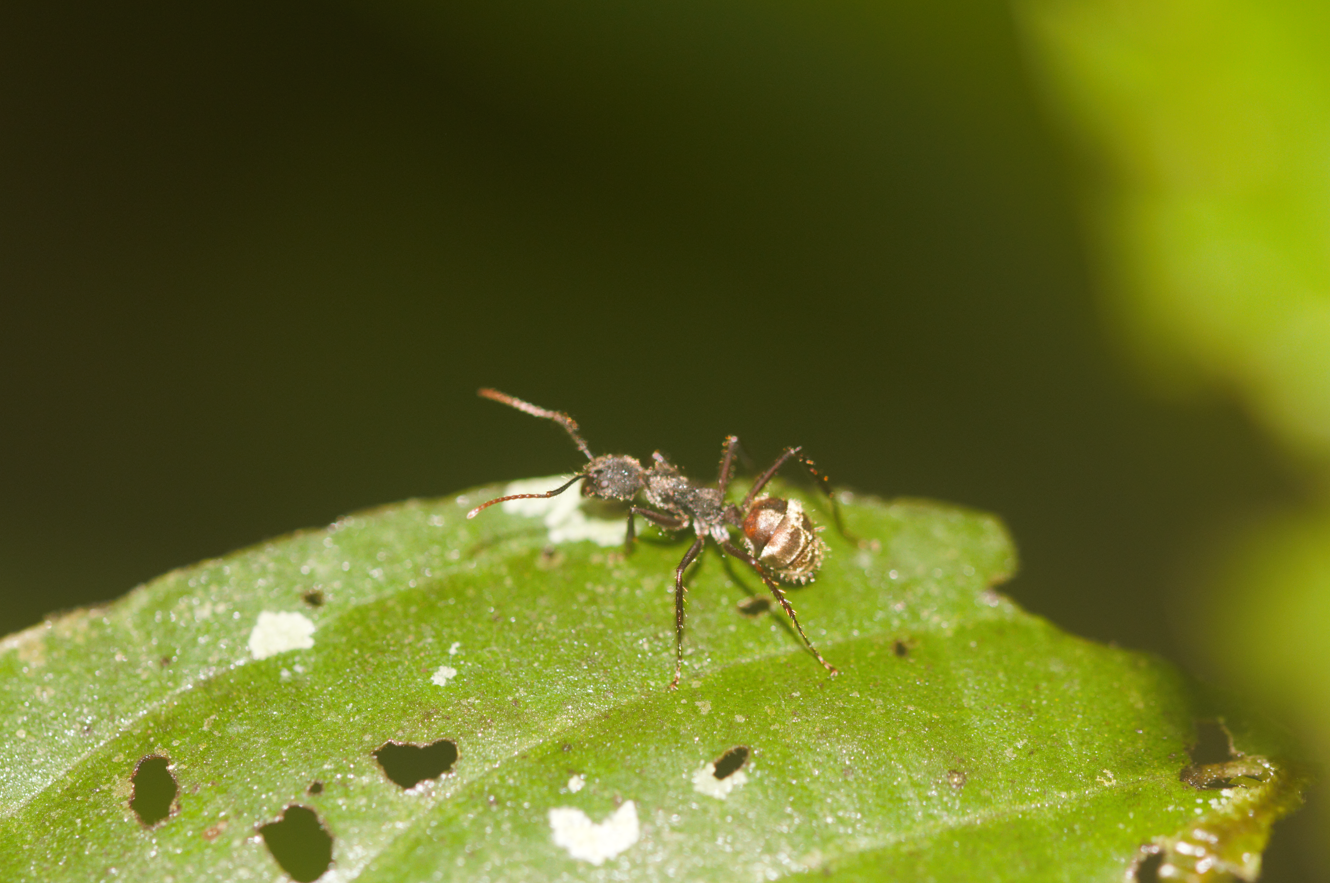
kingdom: Animalia
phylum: Arthropoda
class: Insecta
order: Hymenoptera
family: Formicidae
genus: Dolichoderus
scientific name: Dolichoderus
